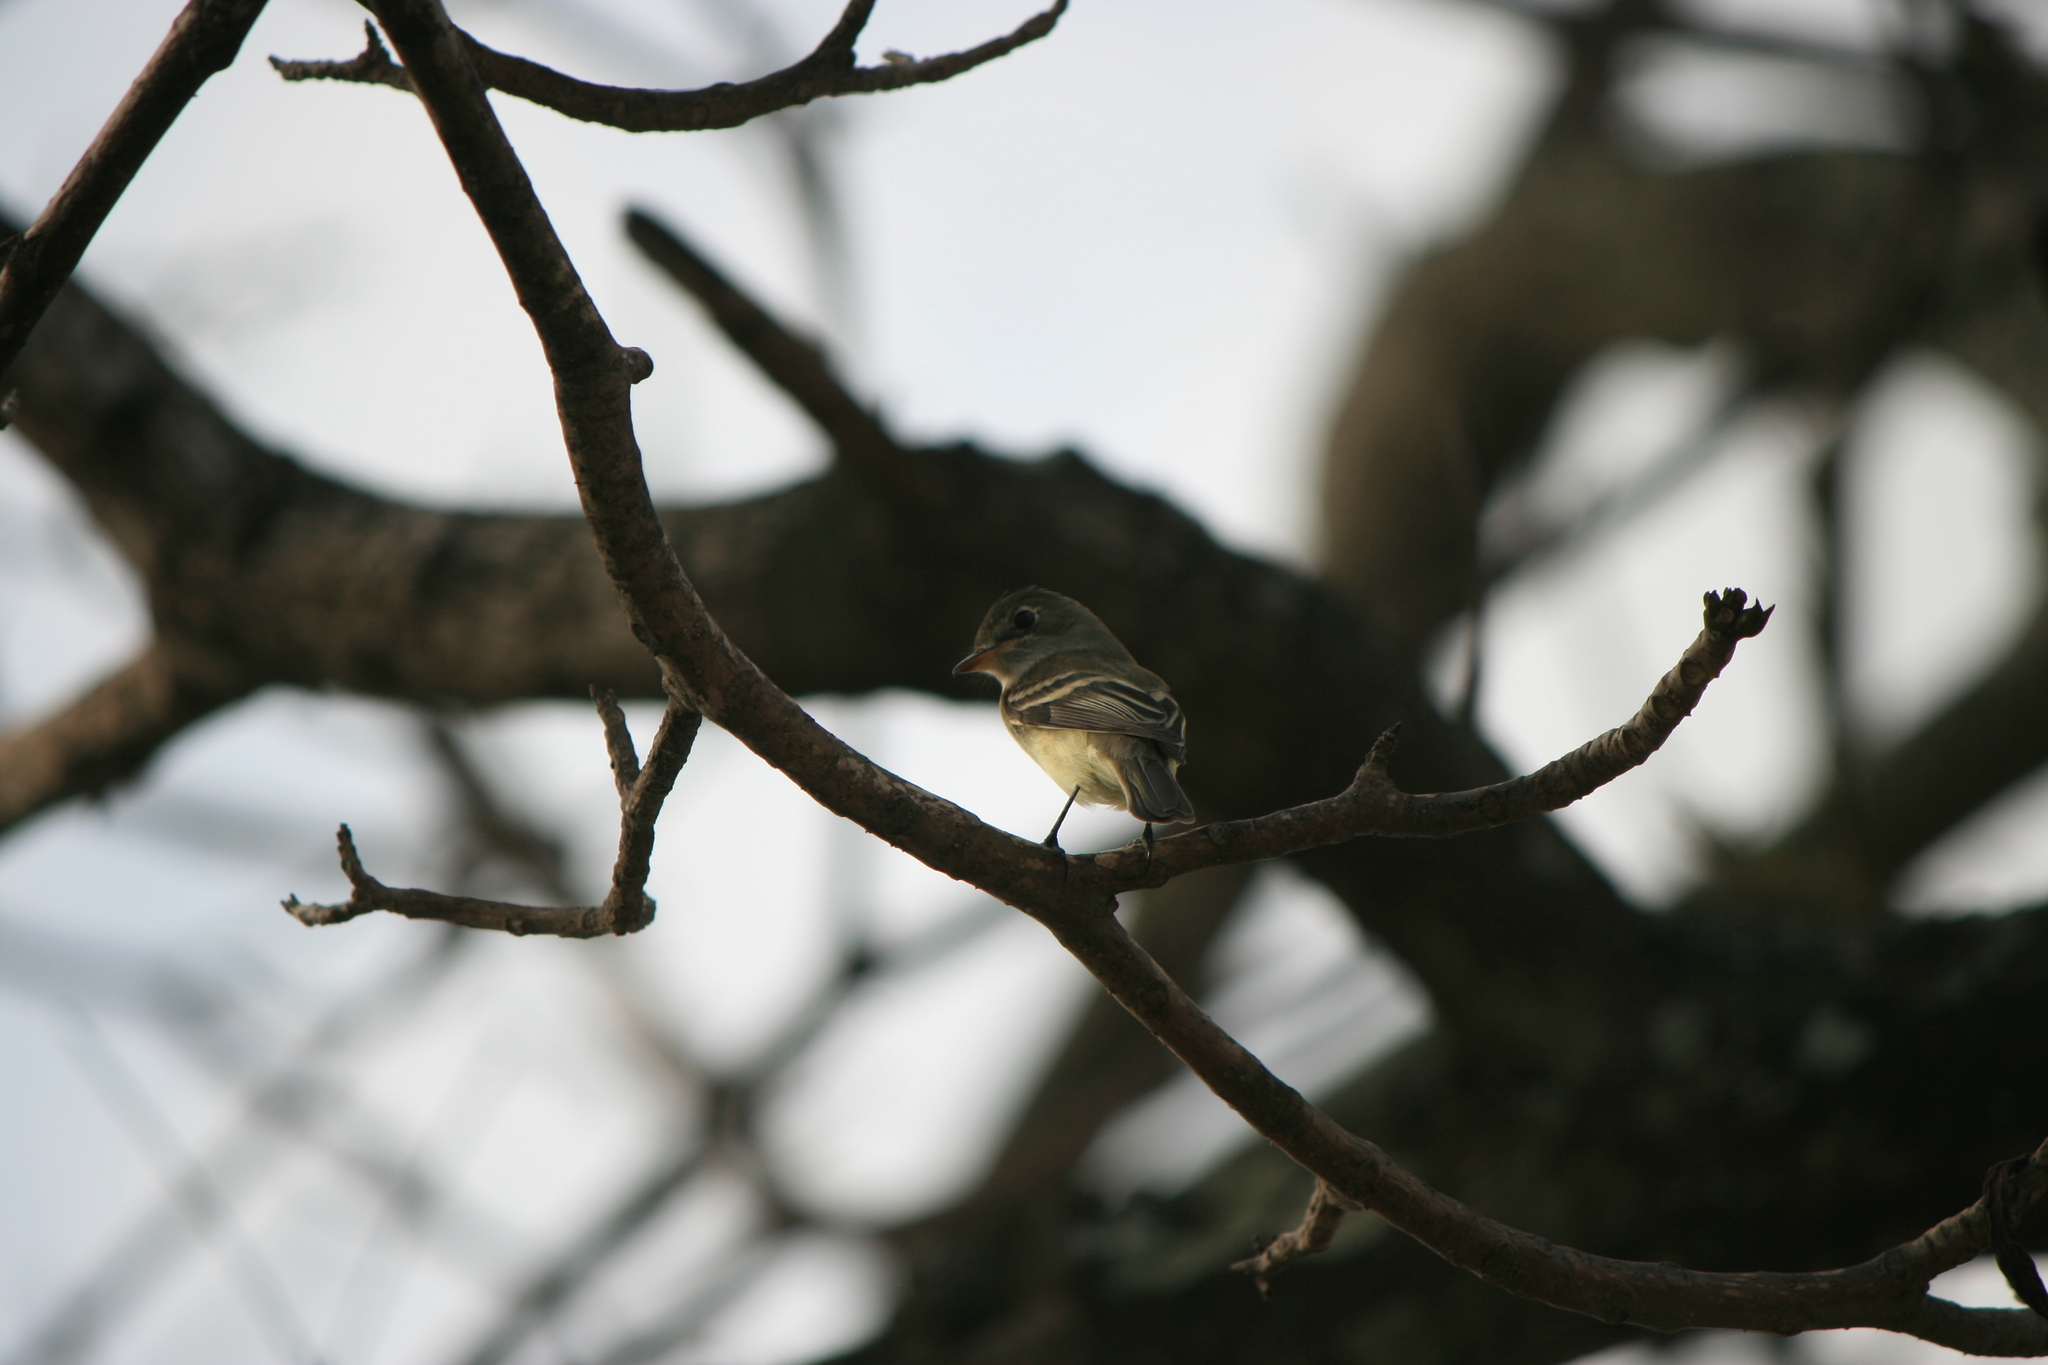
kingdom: Animalia
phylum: Chordata
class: Aves
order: Passeriformes
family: Tyrannidae
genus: Empidonax
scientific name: Empidonax minimus
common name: Least flycatcher
